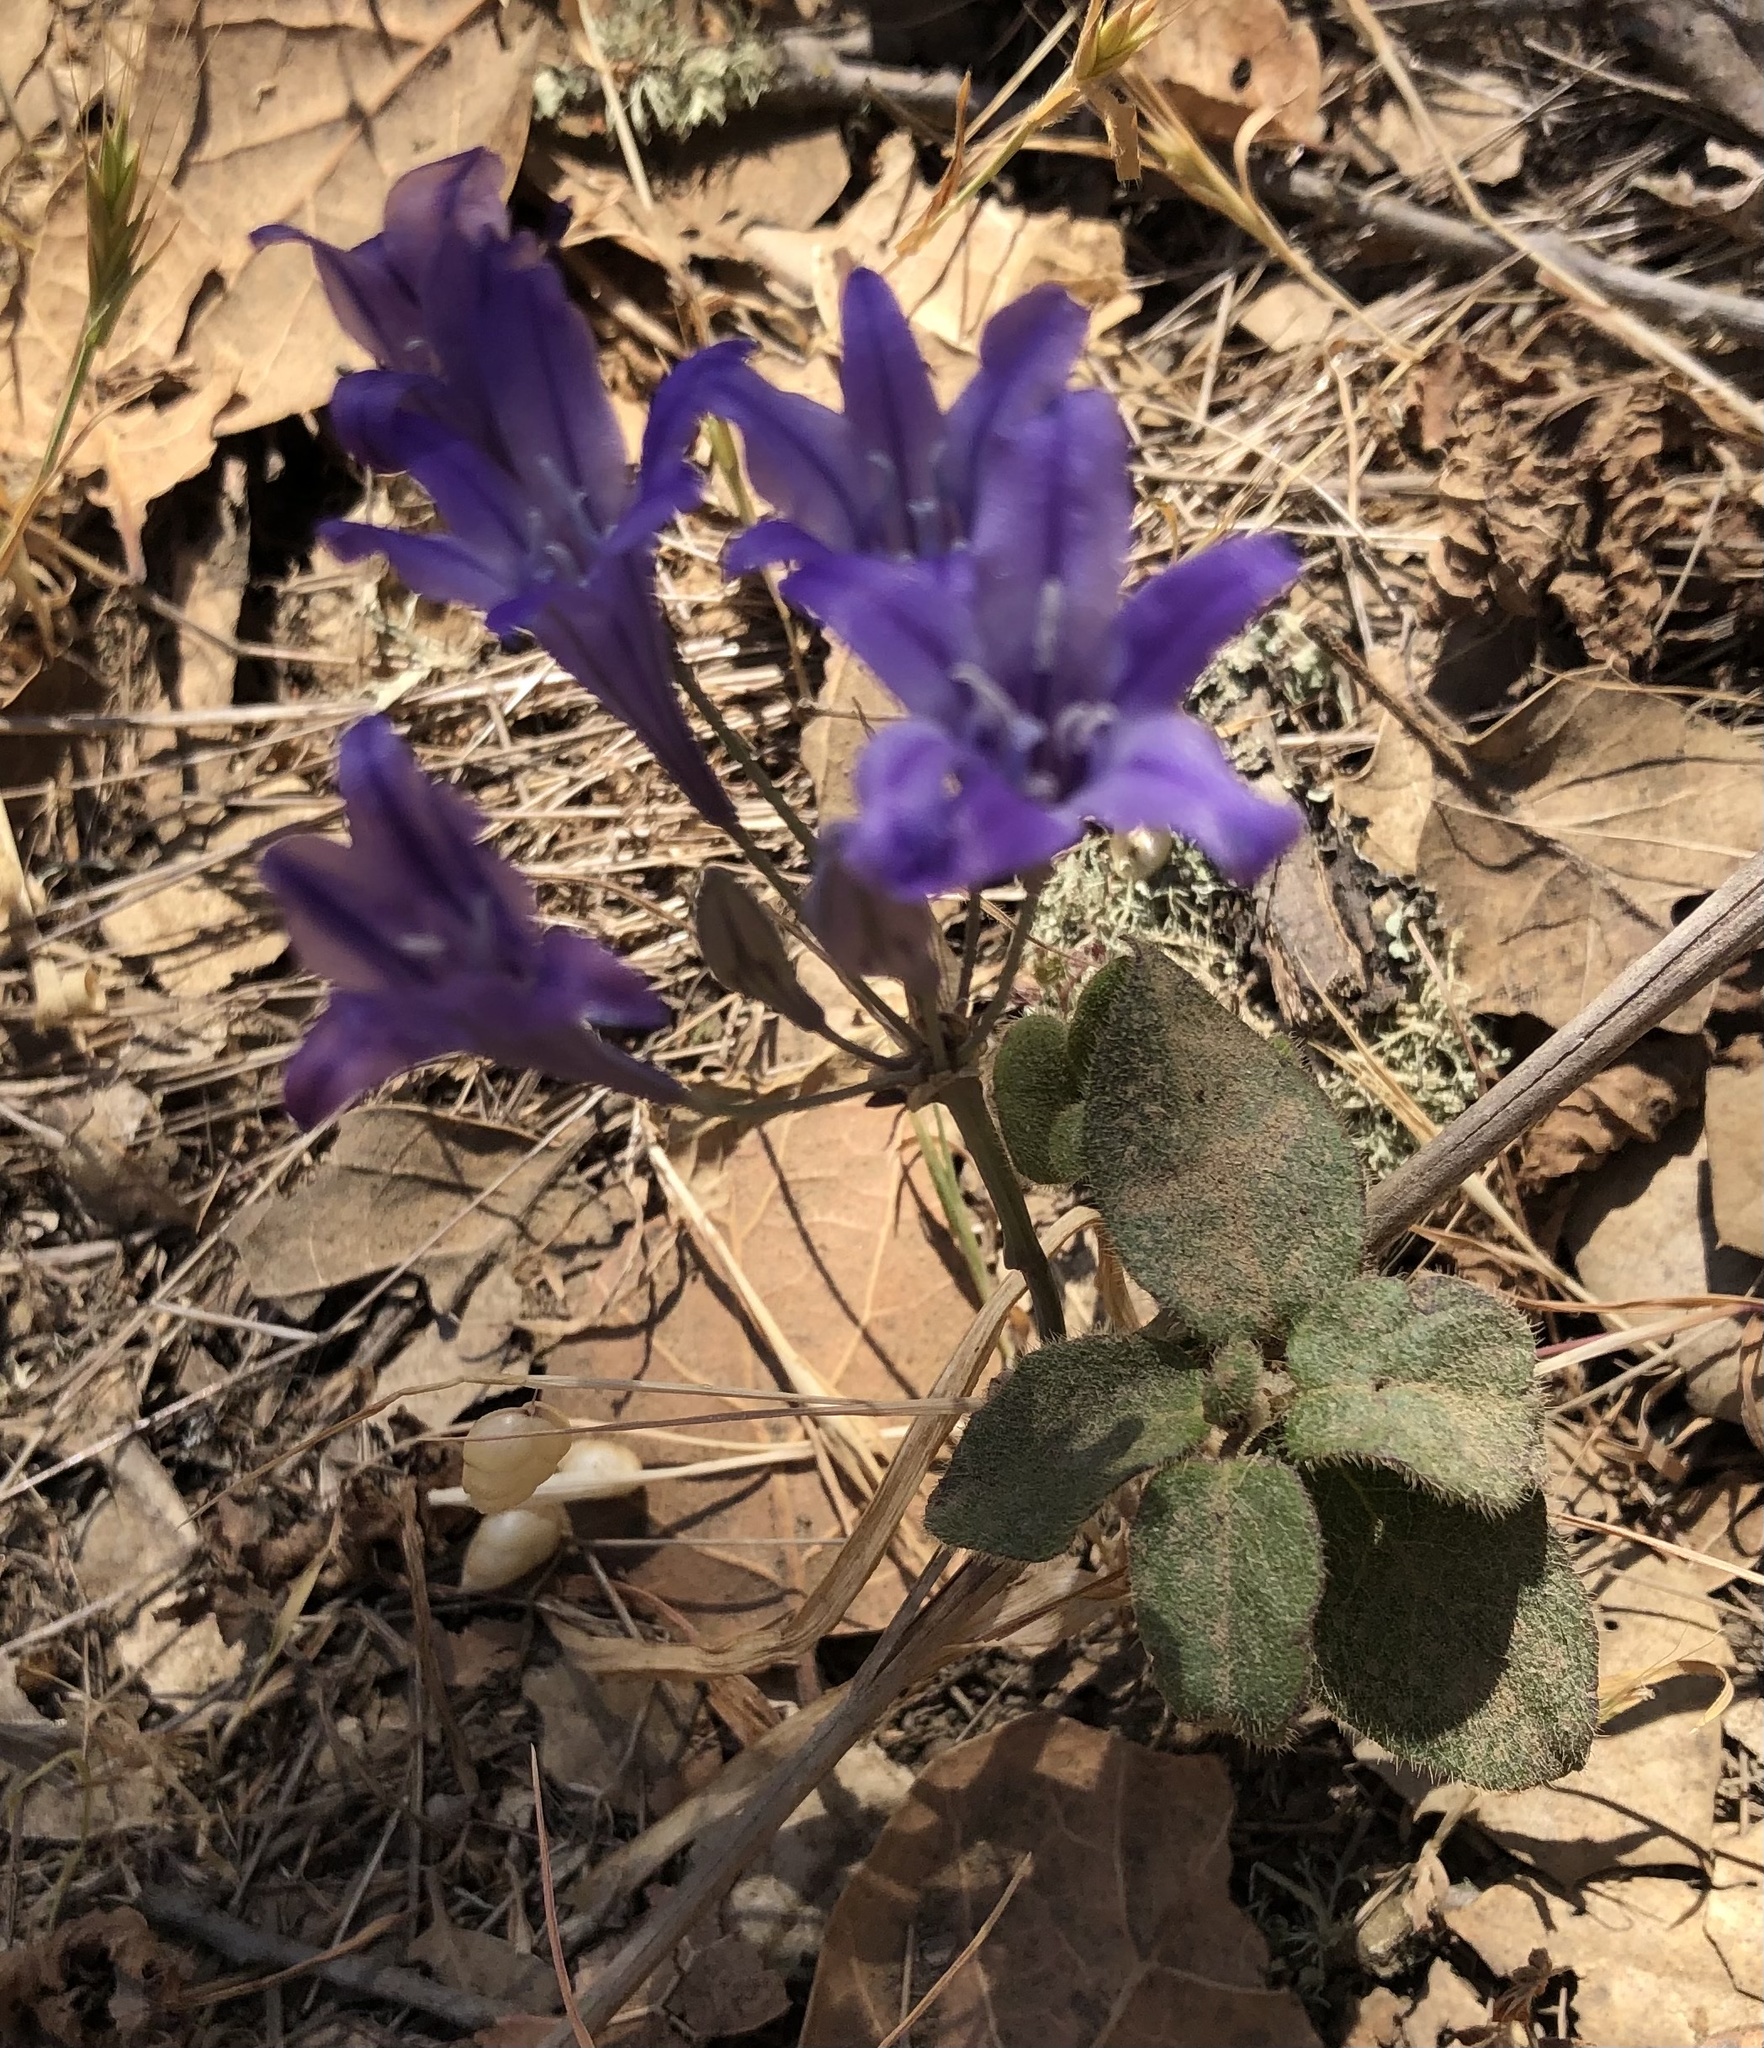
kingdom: Plantae
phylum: Tracheophyta
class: Liliopsida
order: Asparagales
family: Asparagaceae
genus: Triteleia
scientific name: Triteleia laxa
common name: Triplet-lily
